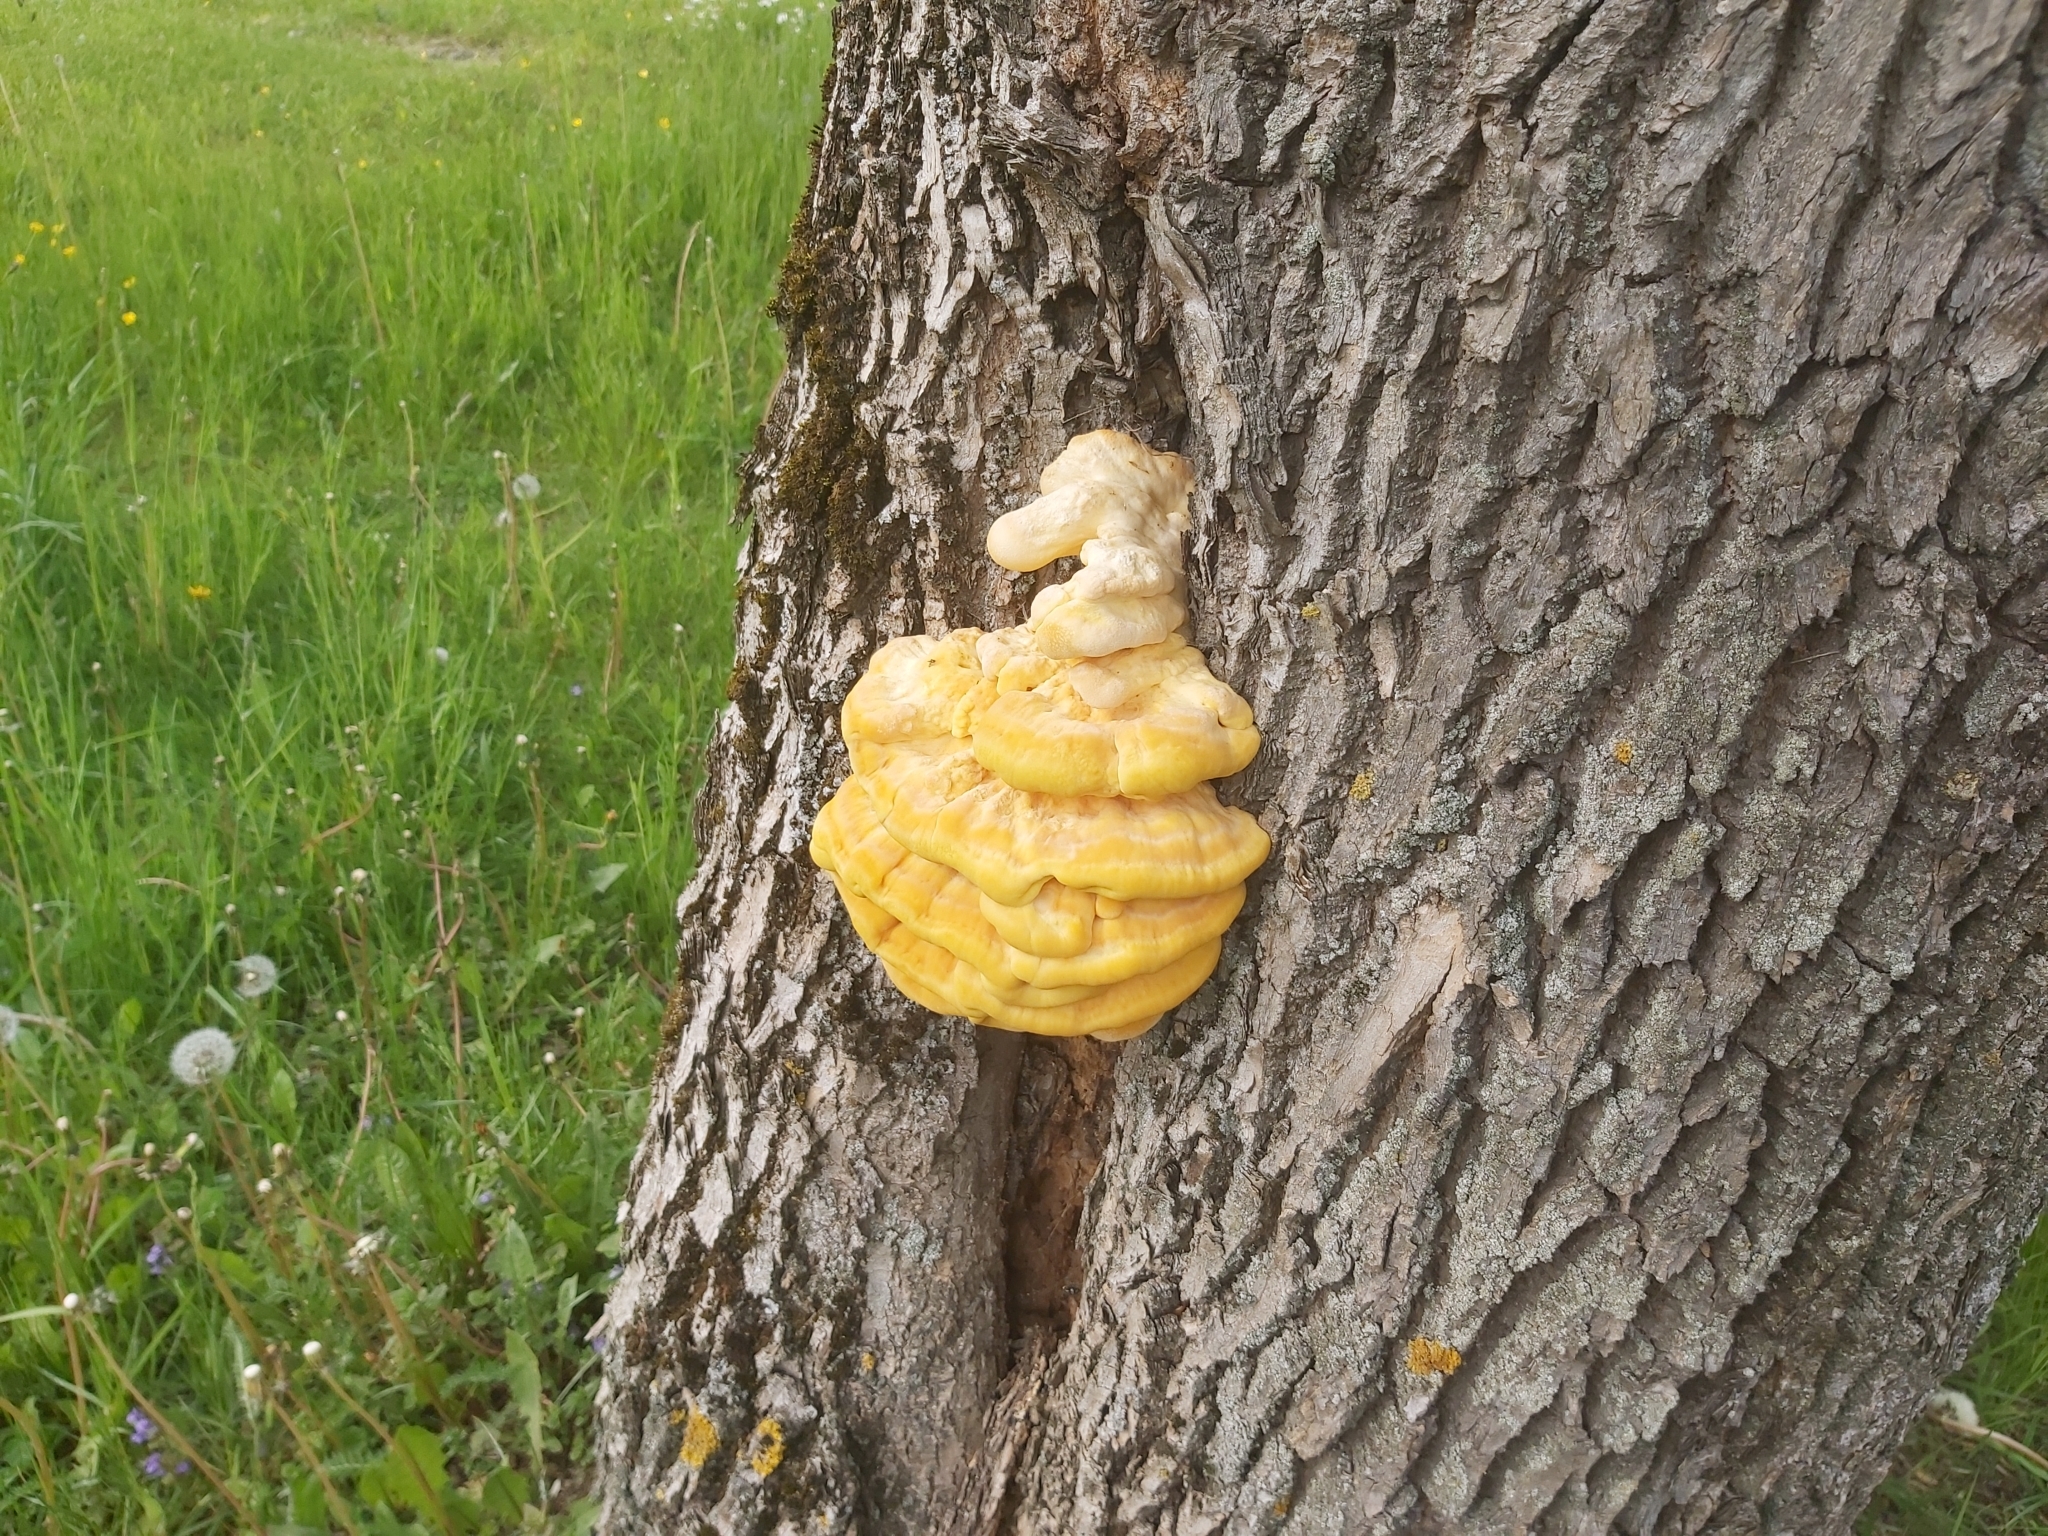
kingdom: Fungi
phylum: Basidiomycota
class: Agaricomycetes
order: Polyporales
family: Laetiporaceae
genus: Laetiporus
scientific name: Laetiporus sulphureus
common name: Chicken of the woods
